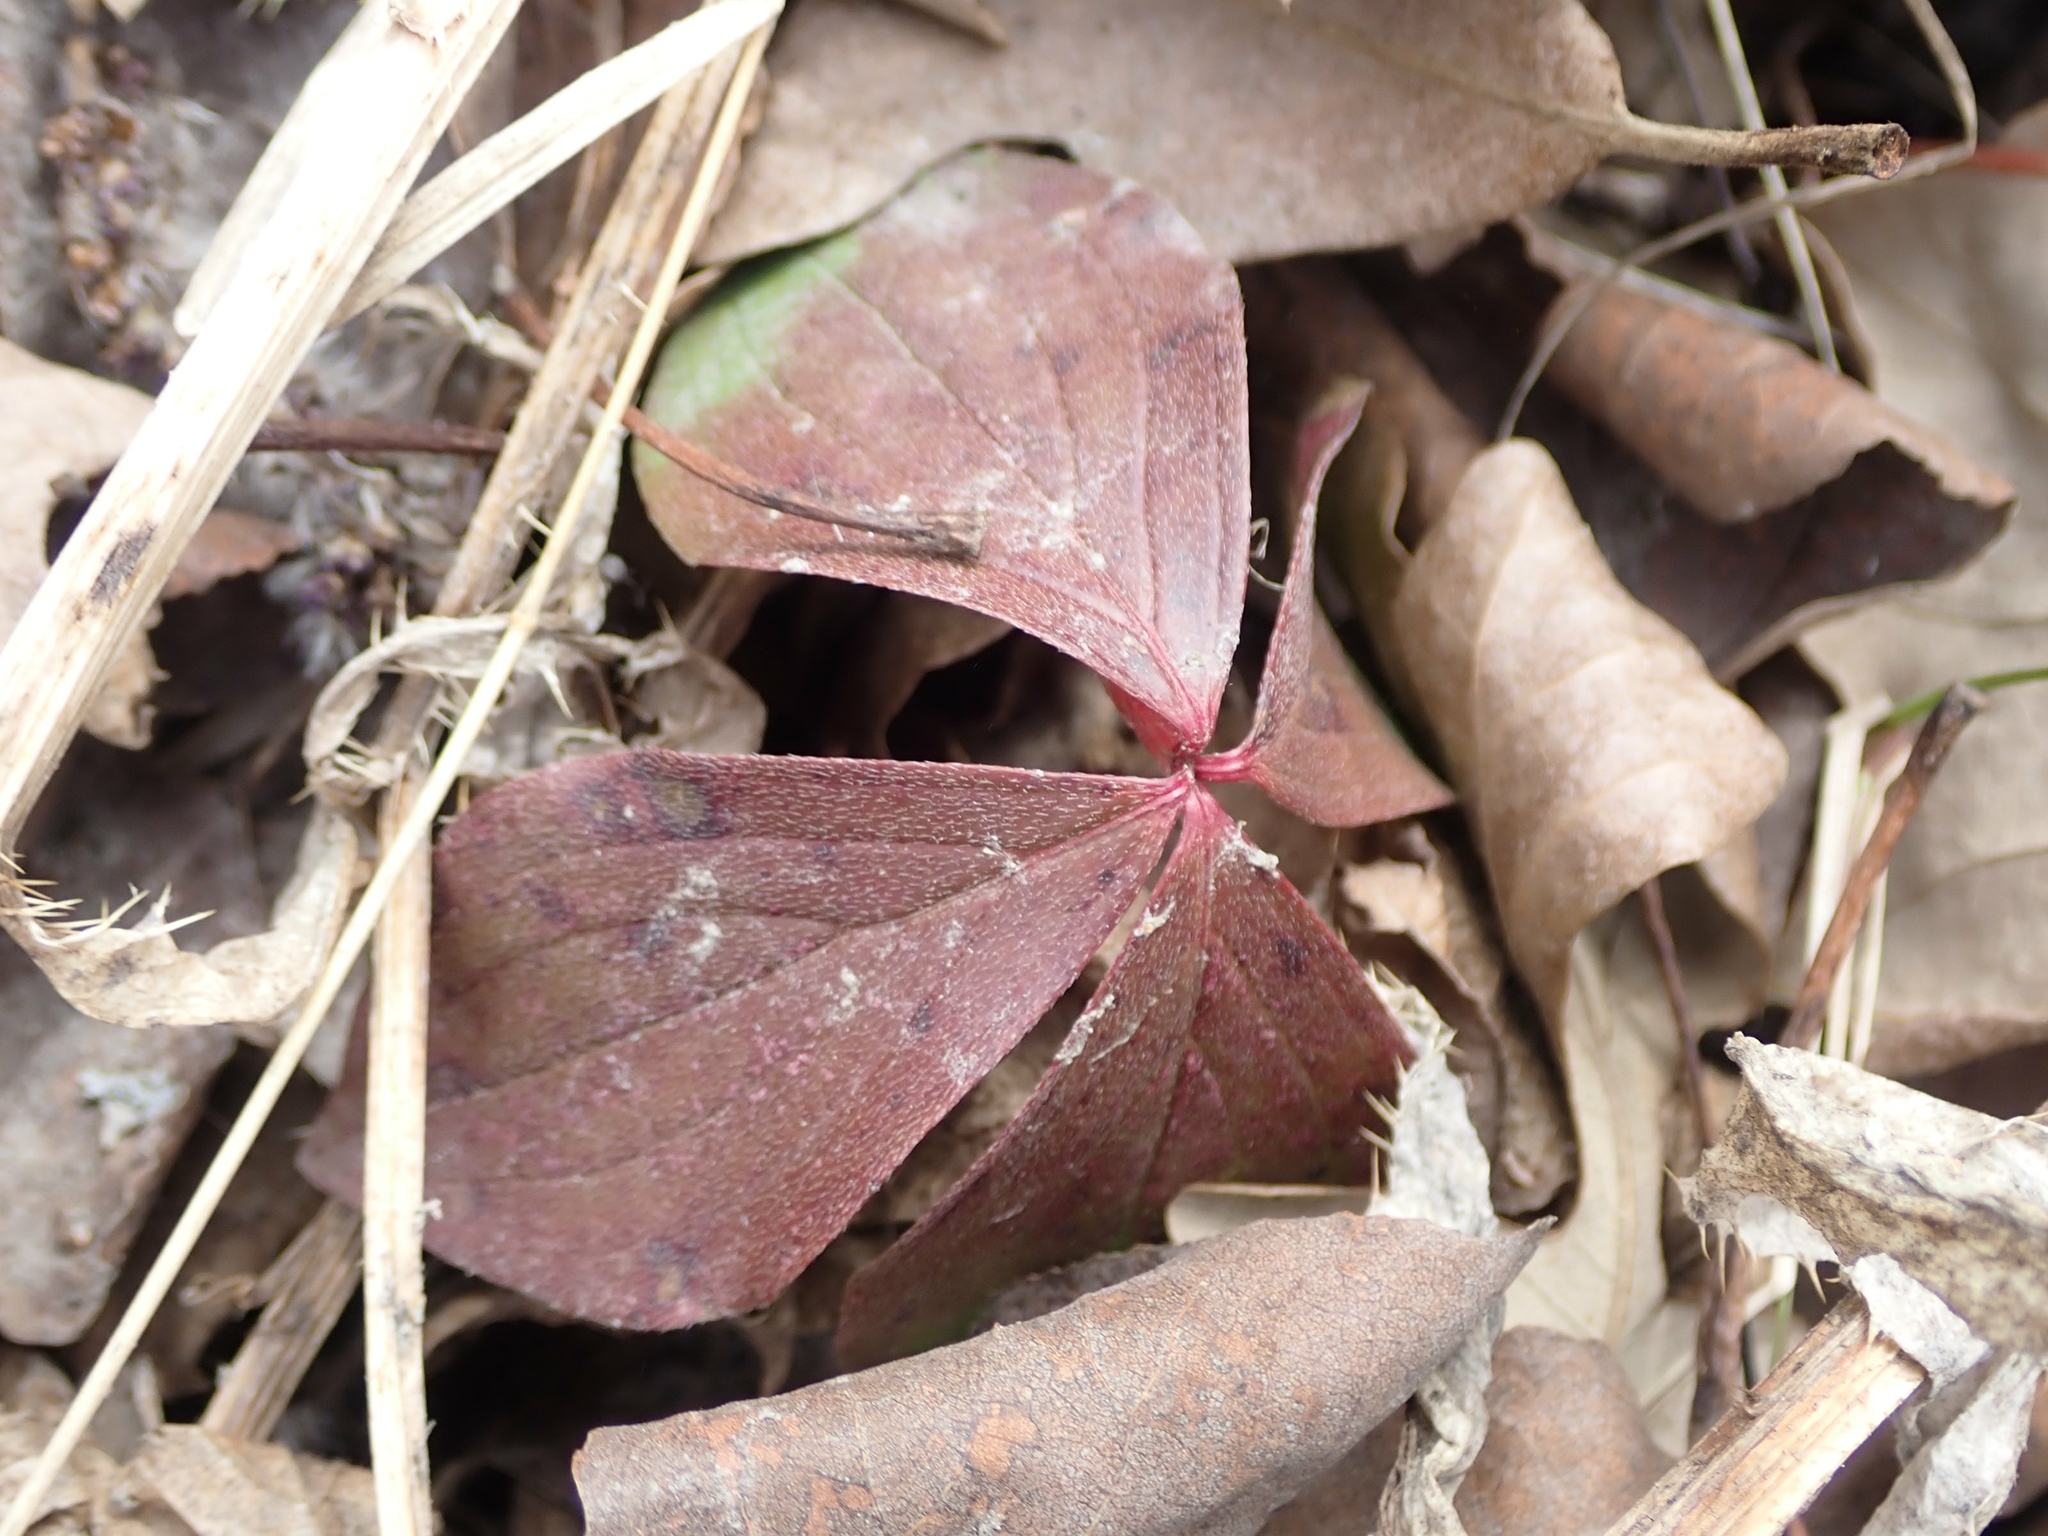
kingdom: Plantae
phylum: Tracheophyta
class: Magnoliopsida
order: Cornales
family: Cornaceae
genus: Cornus
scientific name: Cornus canadensis
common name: Creeping dogwood
